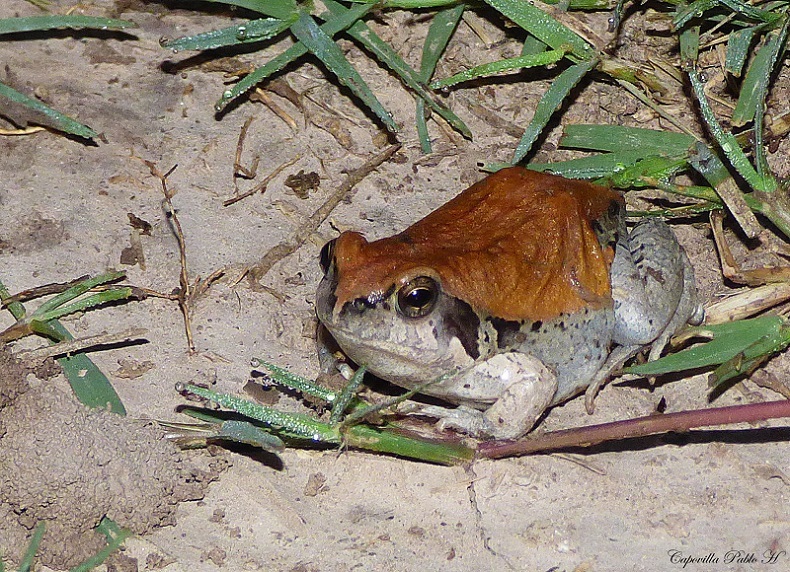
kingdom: Animalia
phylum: Chordata
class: Amphibia
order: Anura
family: Leptodactylidae
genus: Physalaemus
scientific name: Physalaemus biligonigerus
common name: Weeping frog
